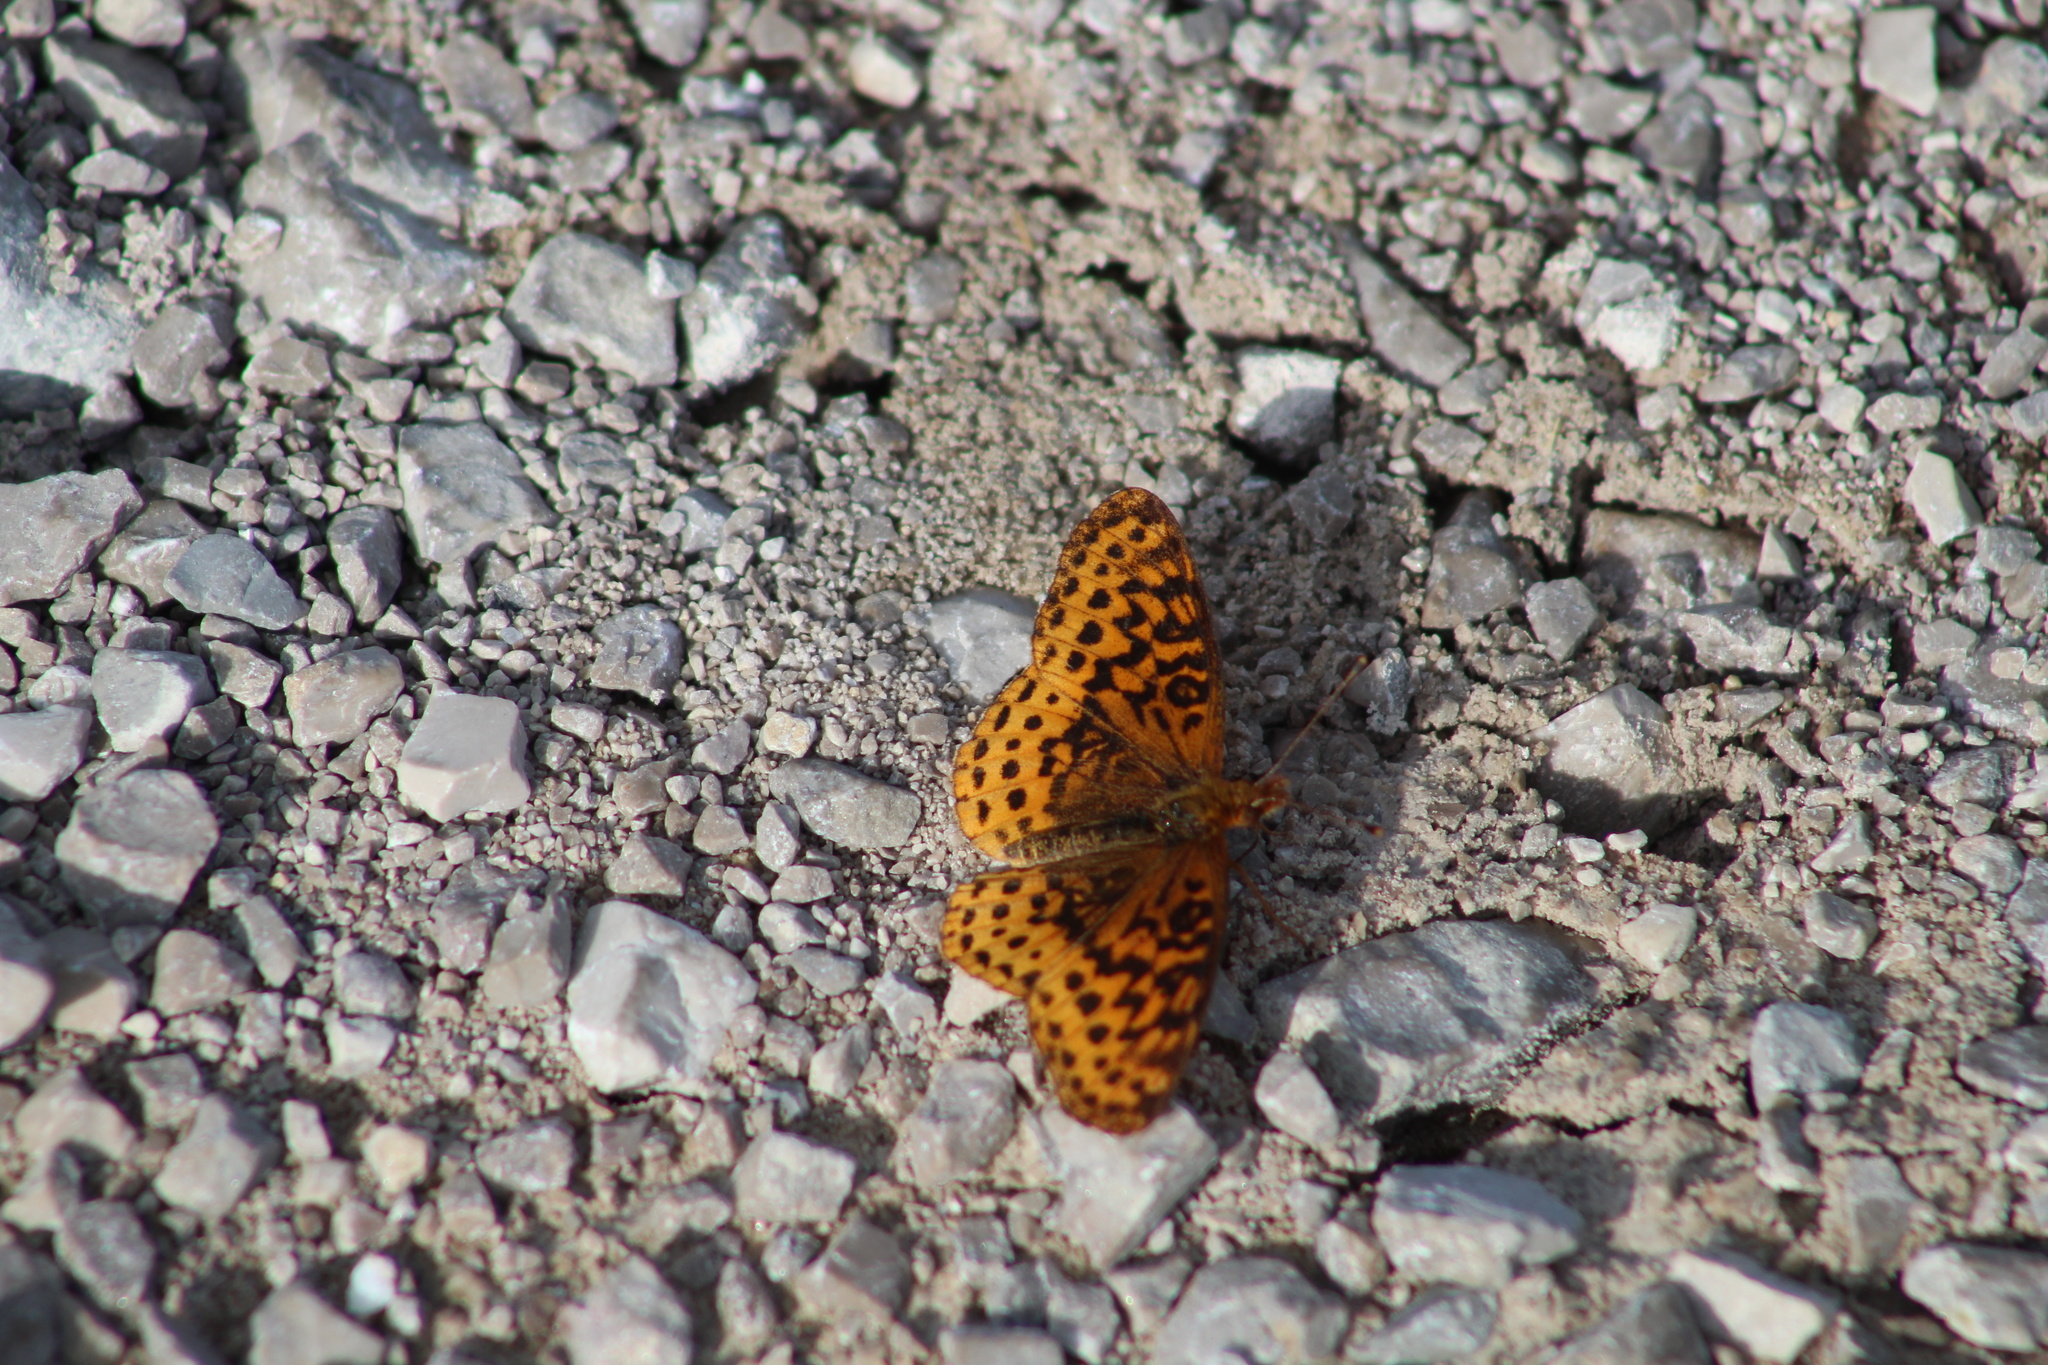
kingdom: Animalia
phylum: Arthropoda
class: Insecta
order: Lepidoptera
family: Nymphalidae
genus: Clossiana
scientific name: Clossiana toddi
